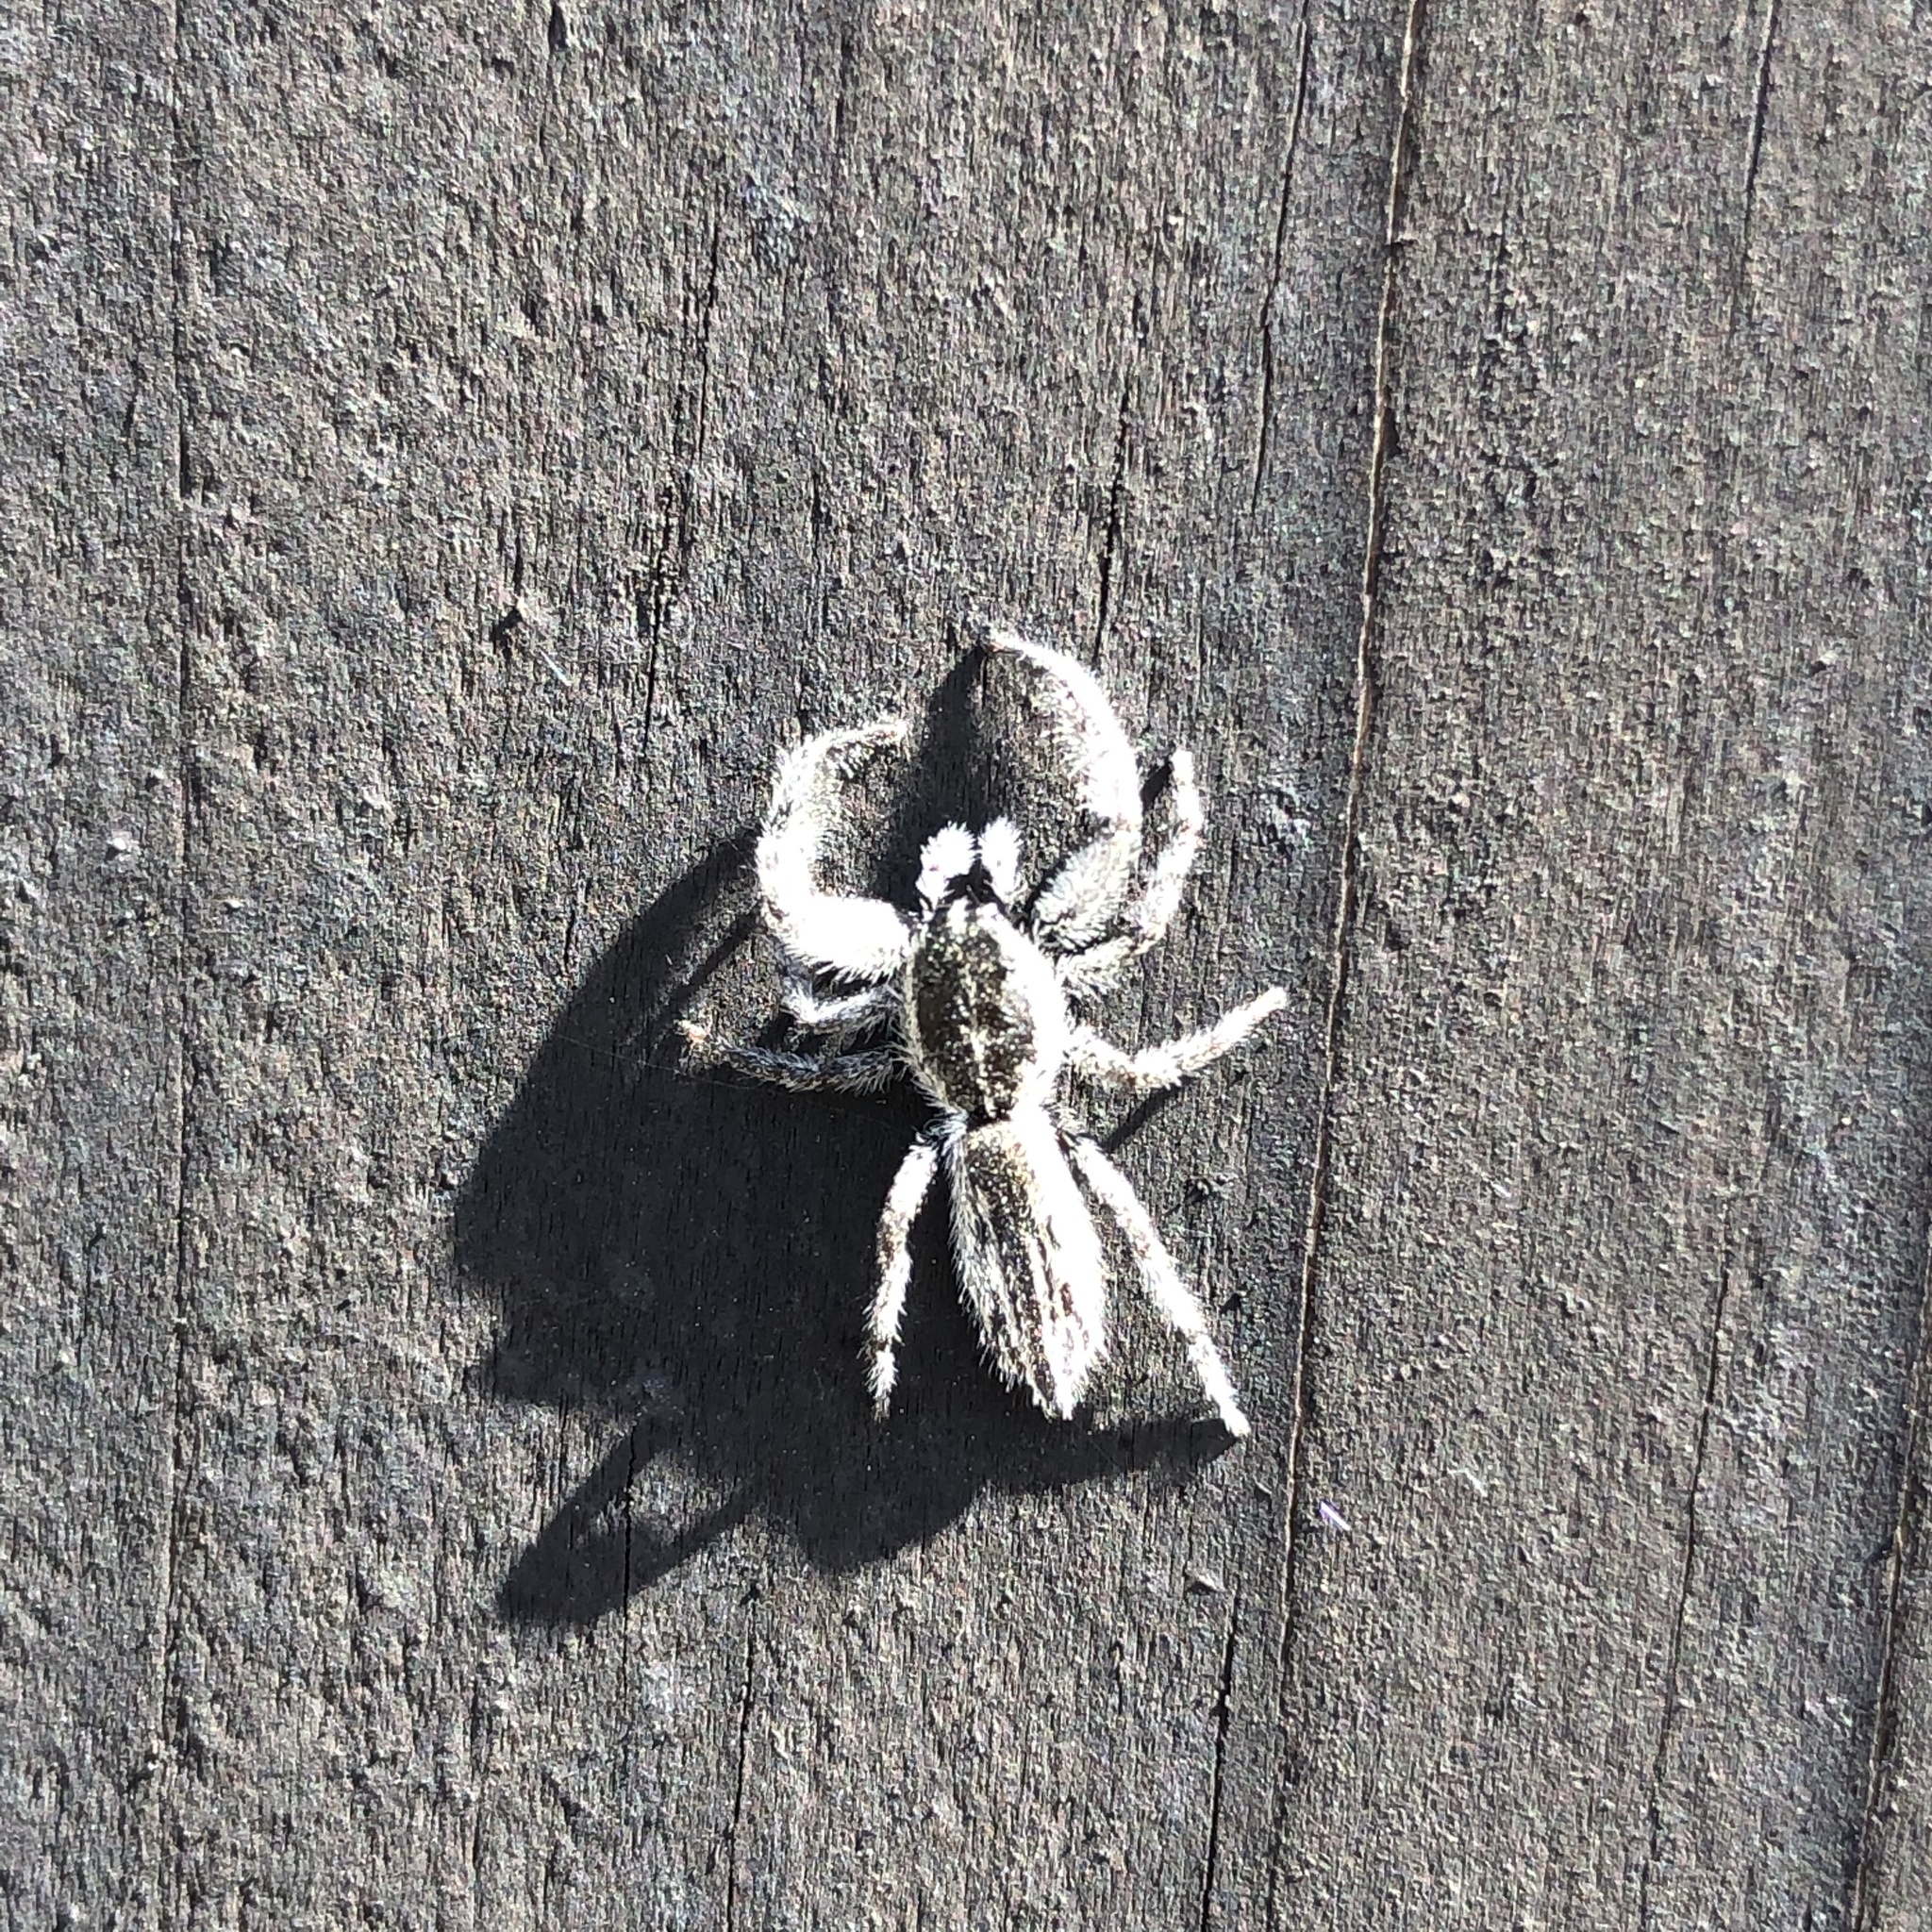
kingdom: Animalia
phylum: Arthropoda
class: Arachnida
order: Araneae
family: Salticidae
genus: Holoplatys
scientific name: Holoplatys apressus
